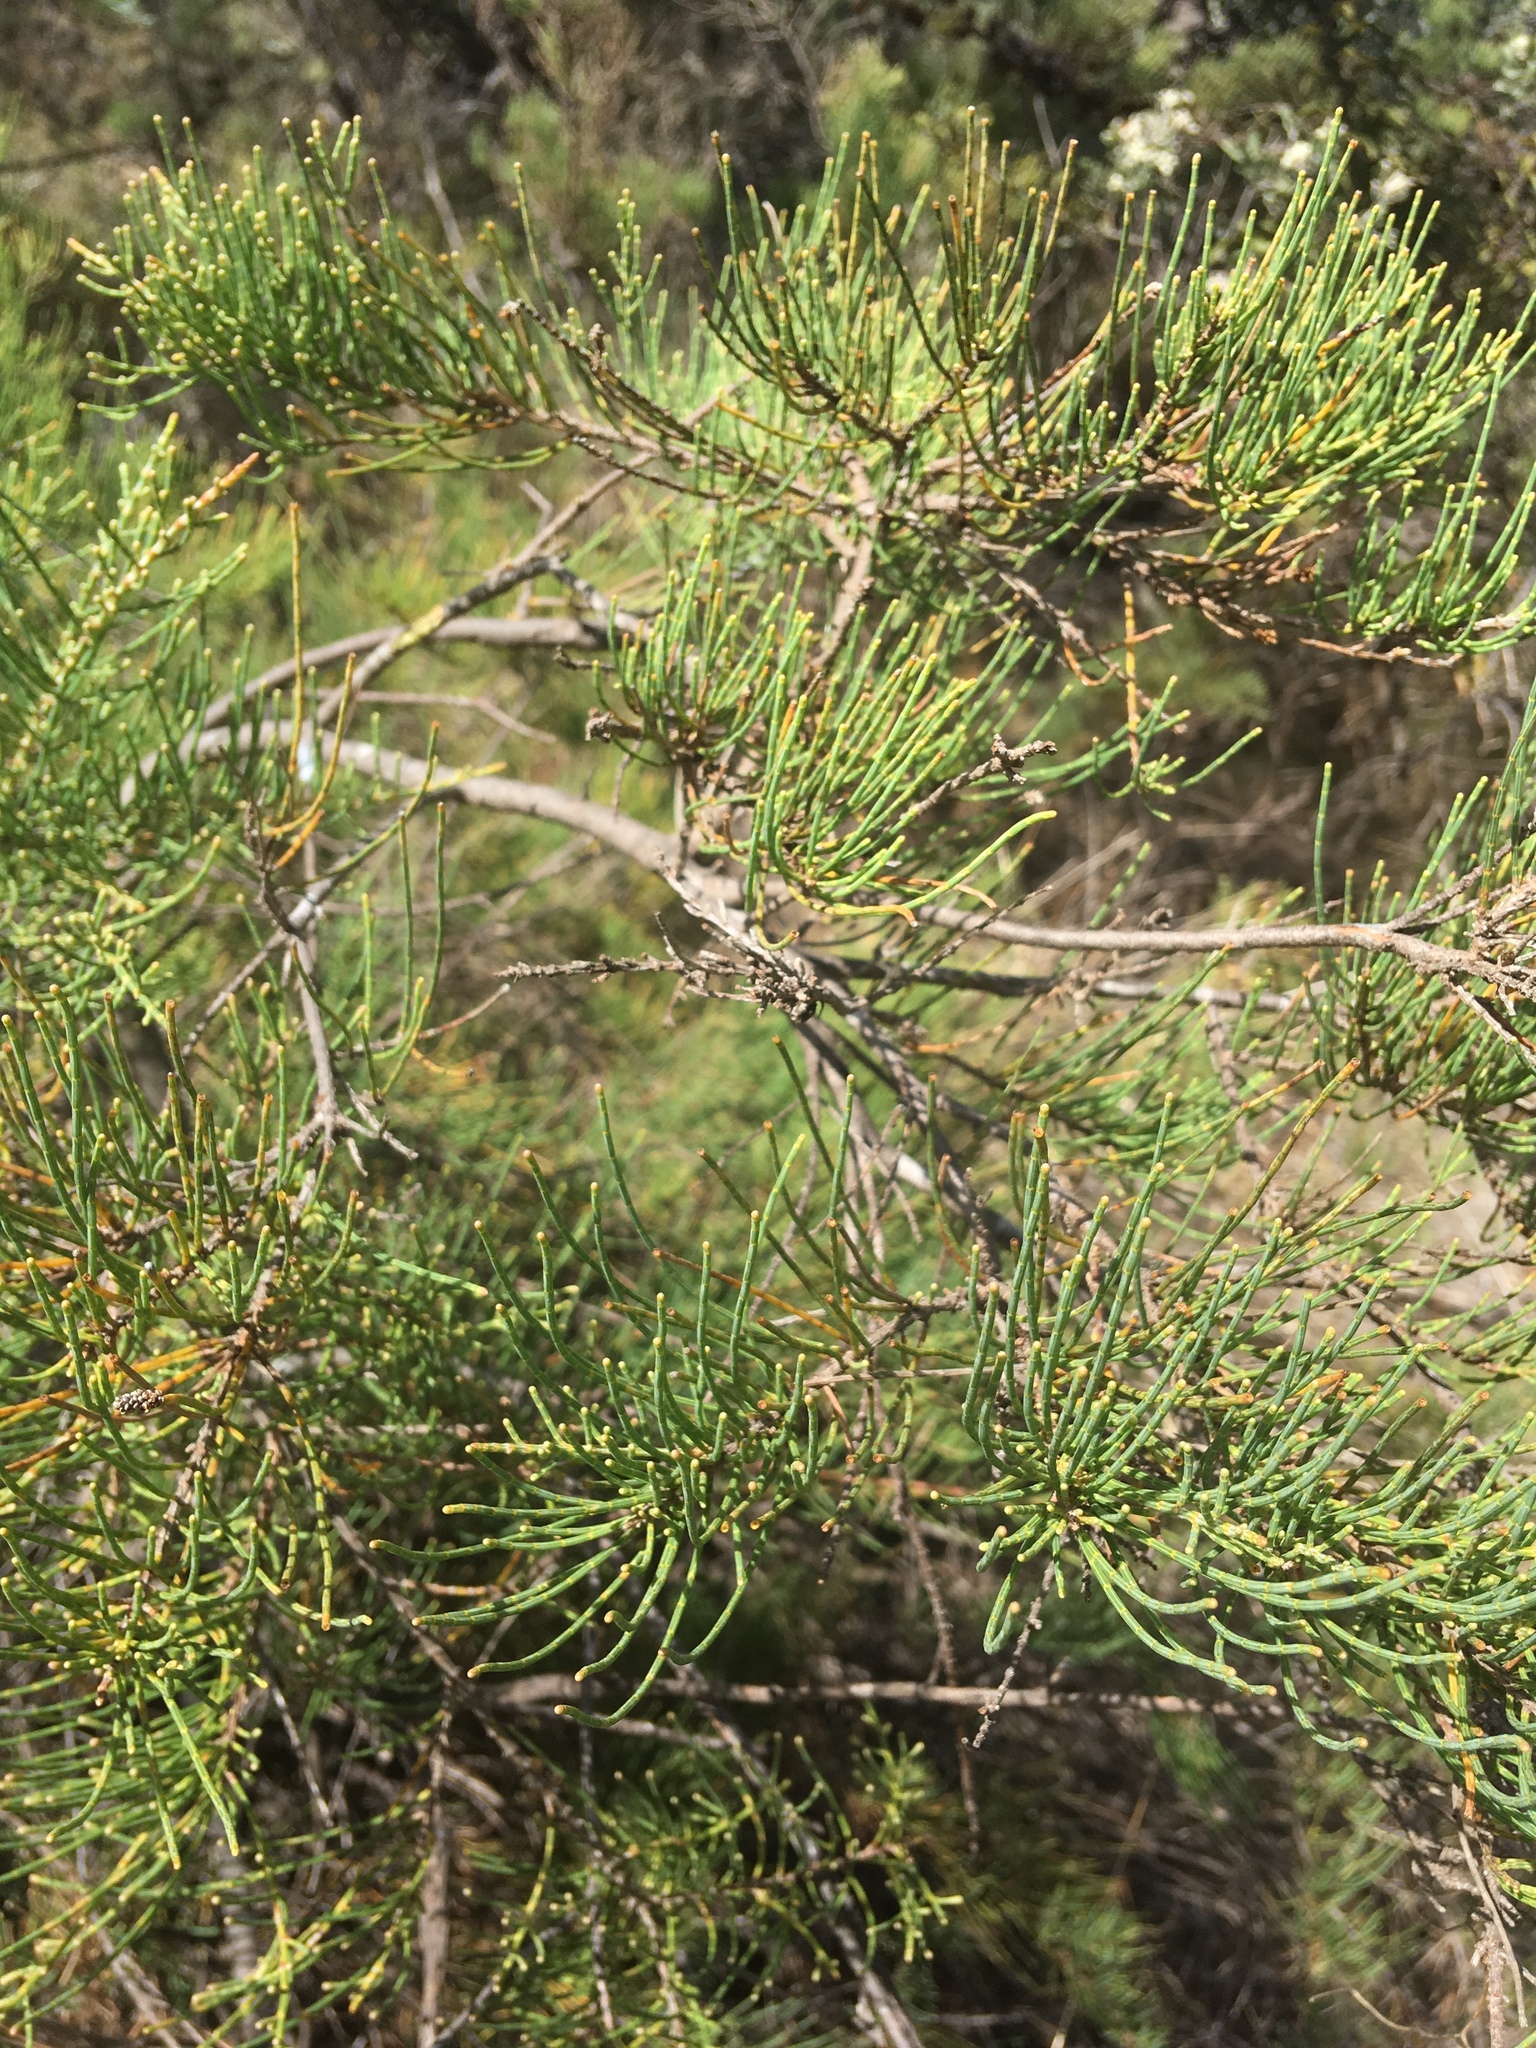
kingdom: Plantae
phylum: Tracheophyta
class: Magnoliopsida
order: Fagales
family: Casuarinaceae
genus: Allocasuarina
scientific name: Allocasuarina humilis
